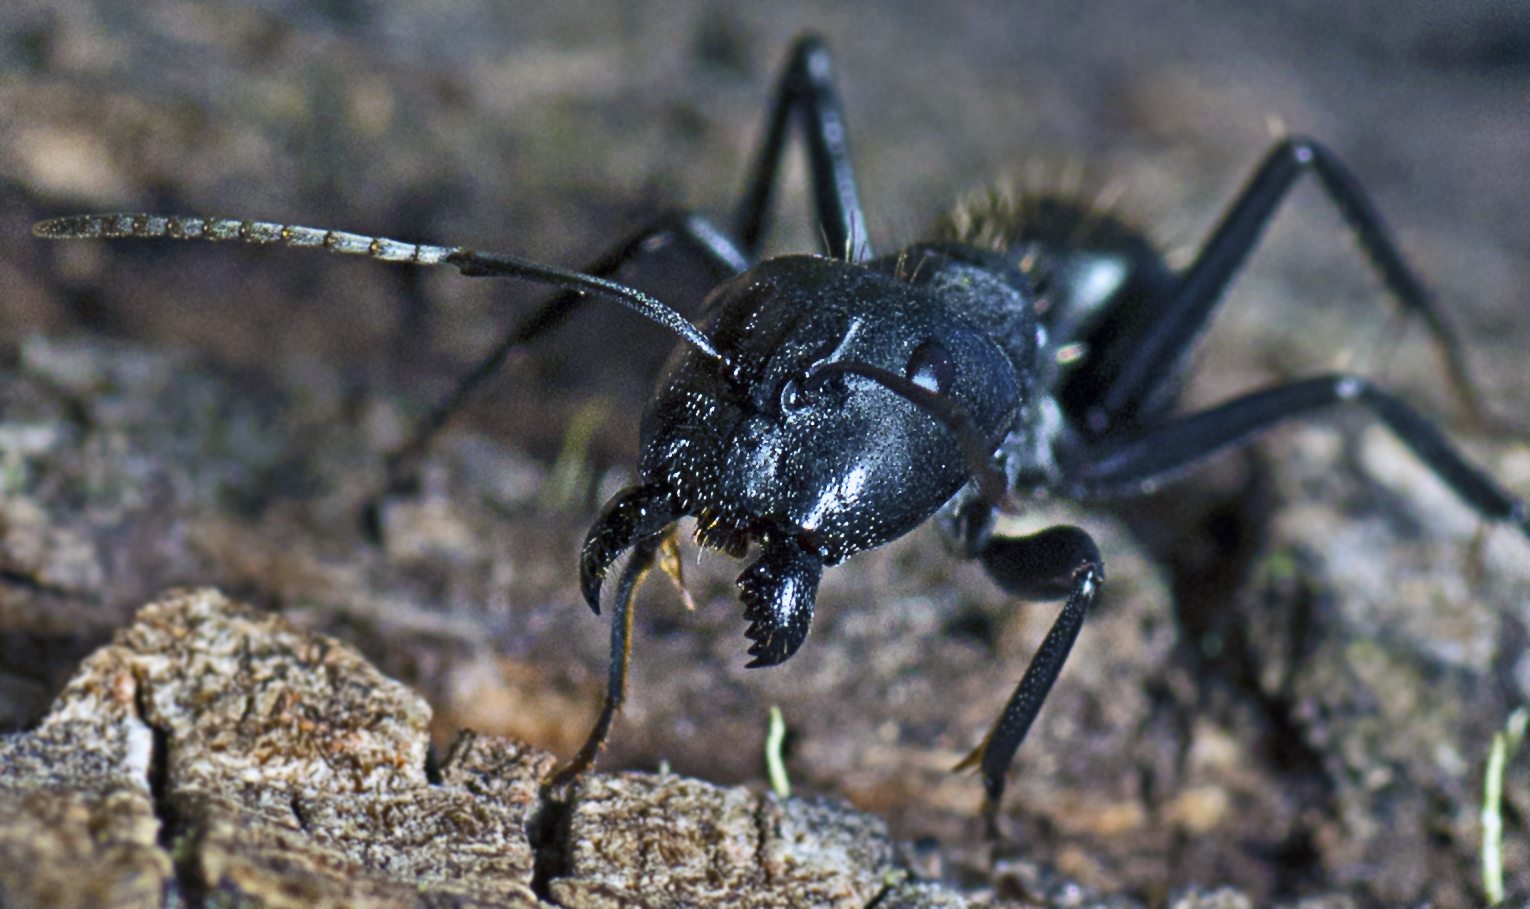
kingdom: Animalia
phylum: Arthropoda
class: Insecta
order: Hymenoptera
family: Formicidae
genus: Camponotus
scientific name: Camponotus aeneopilosus
